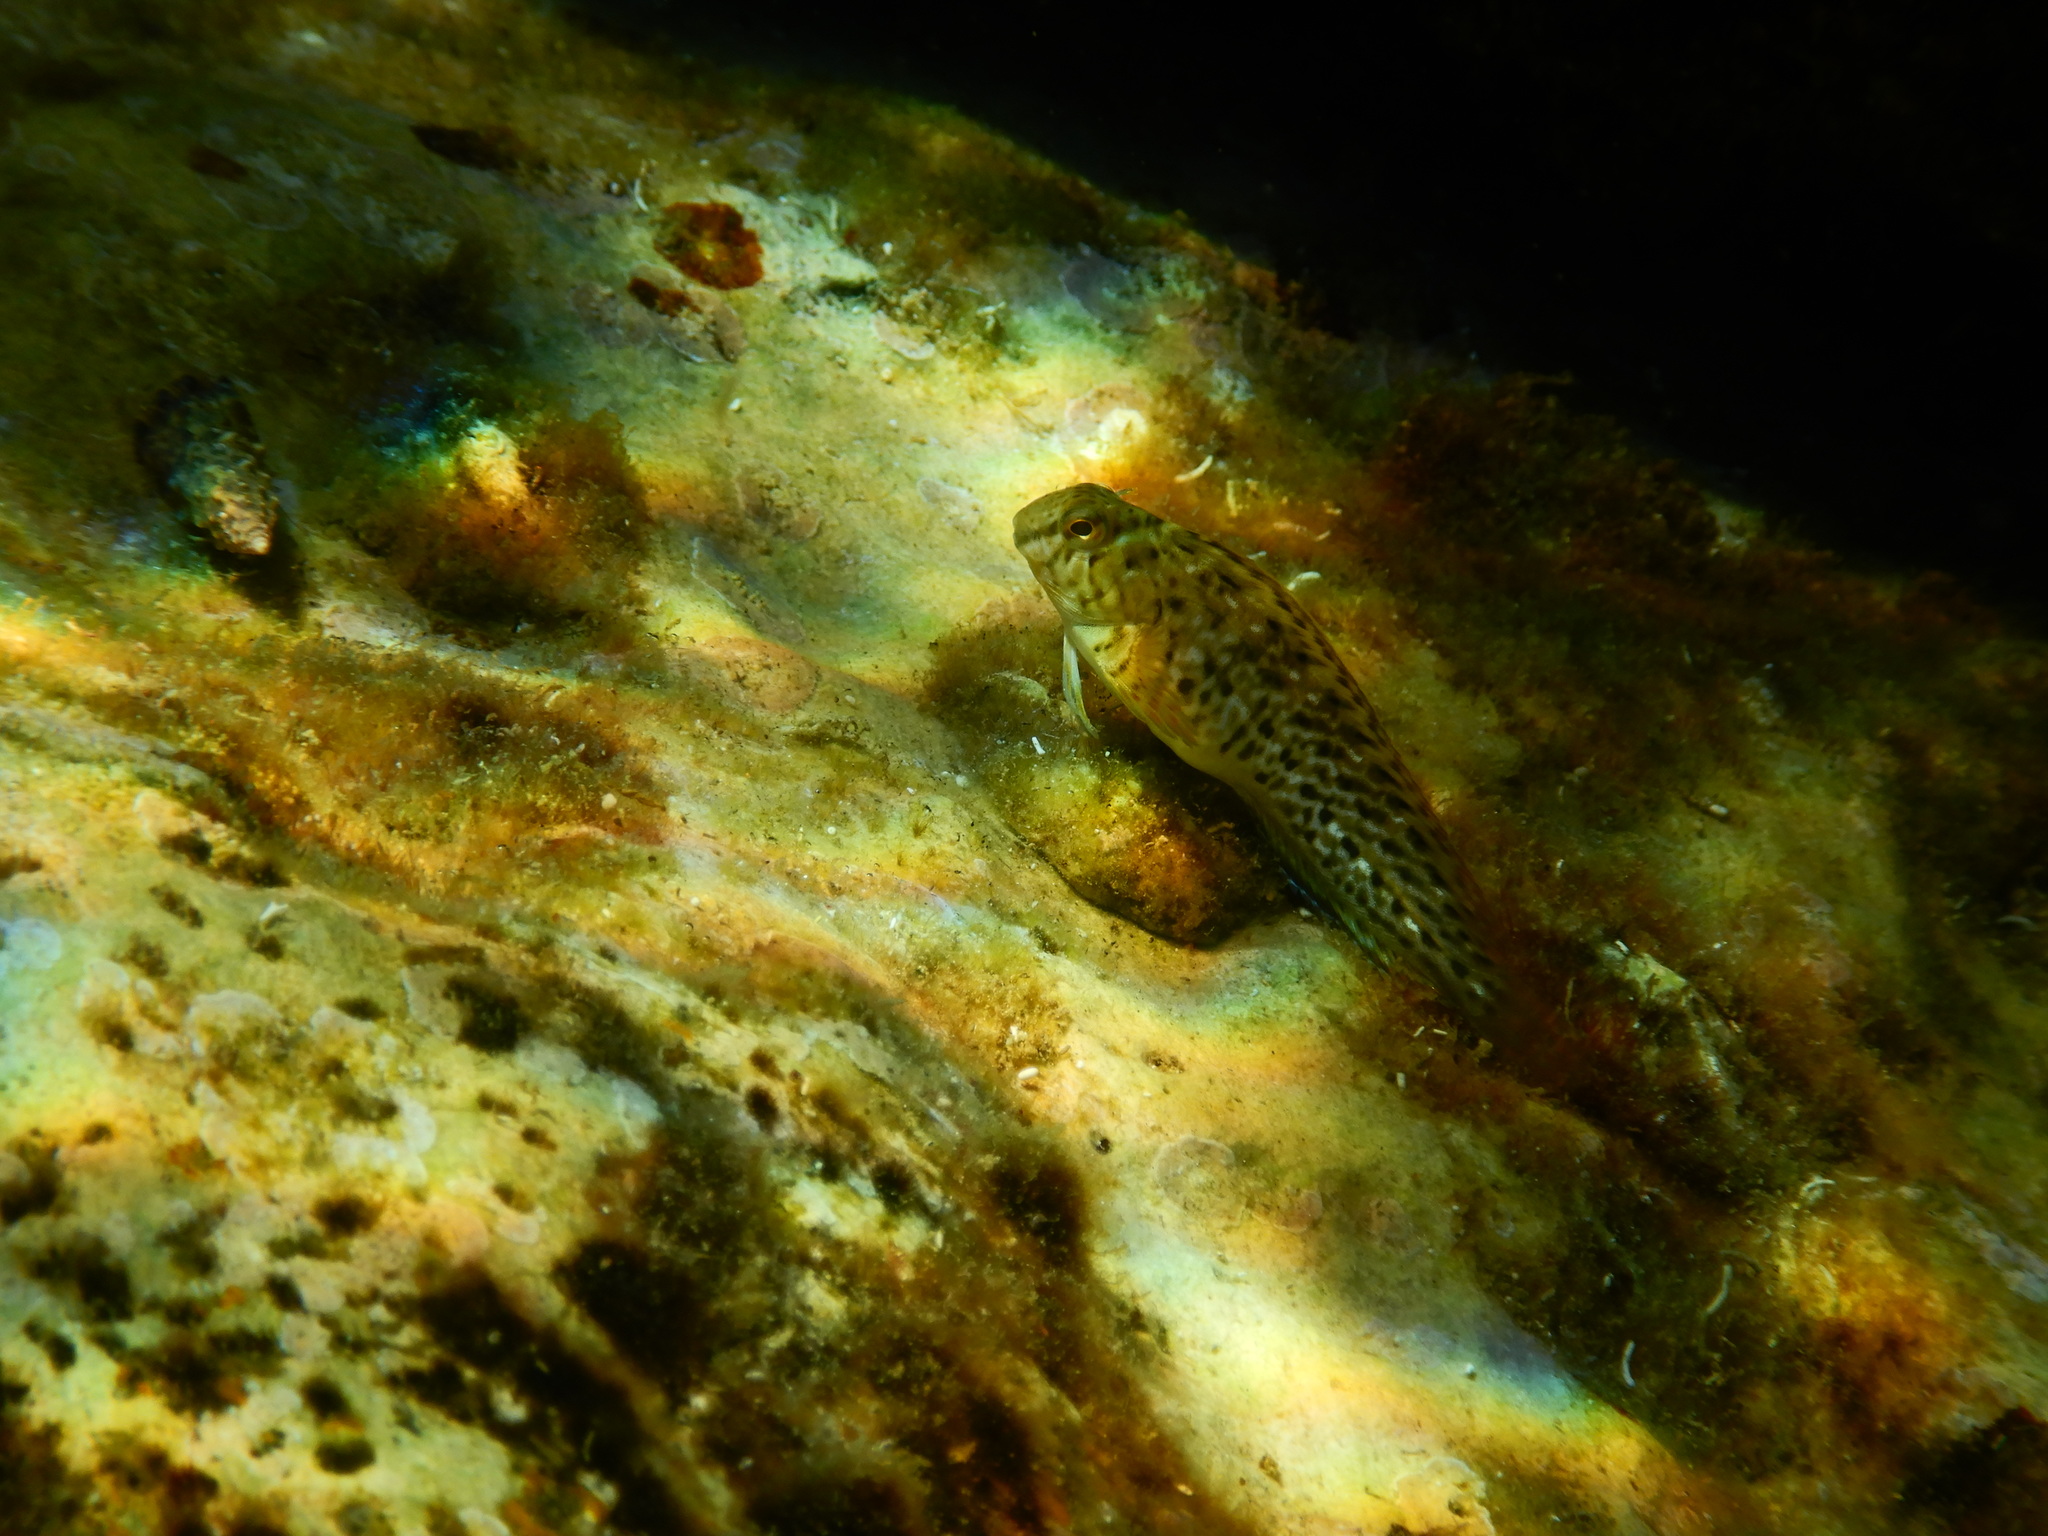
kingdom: Animalia
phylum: Chordata
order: Perciformes
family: Blenniidae
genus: Parablennius
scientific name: Parablennius sanguinolentus
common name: Black sea blenny
